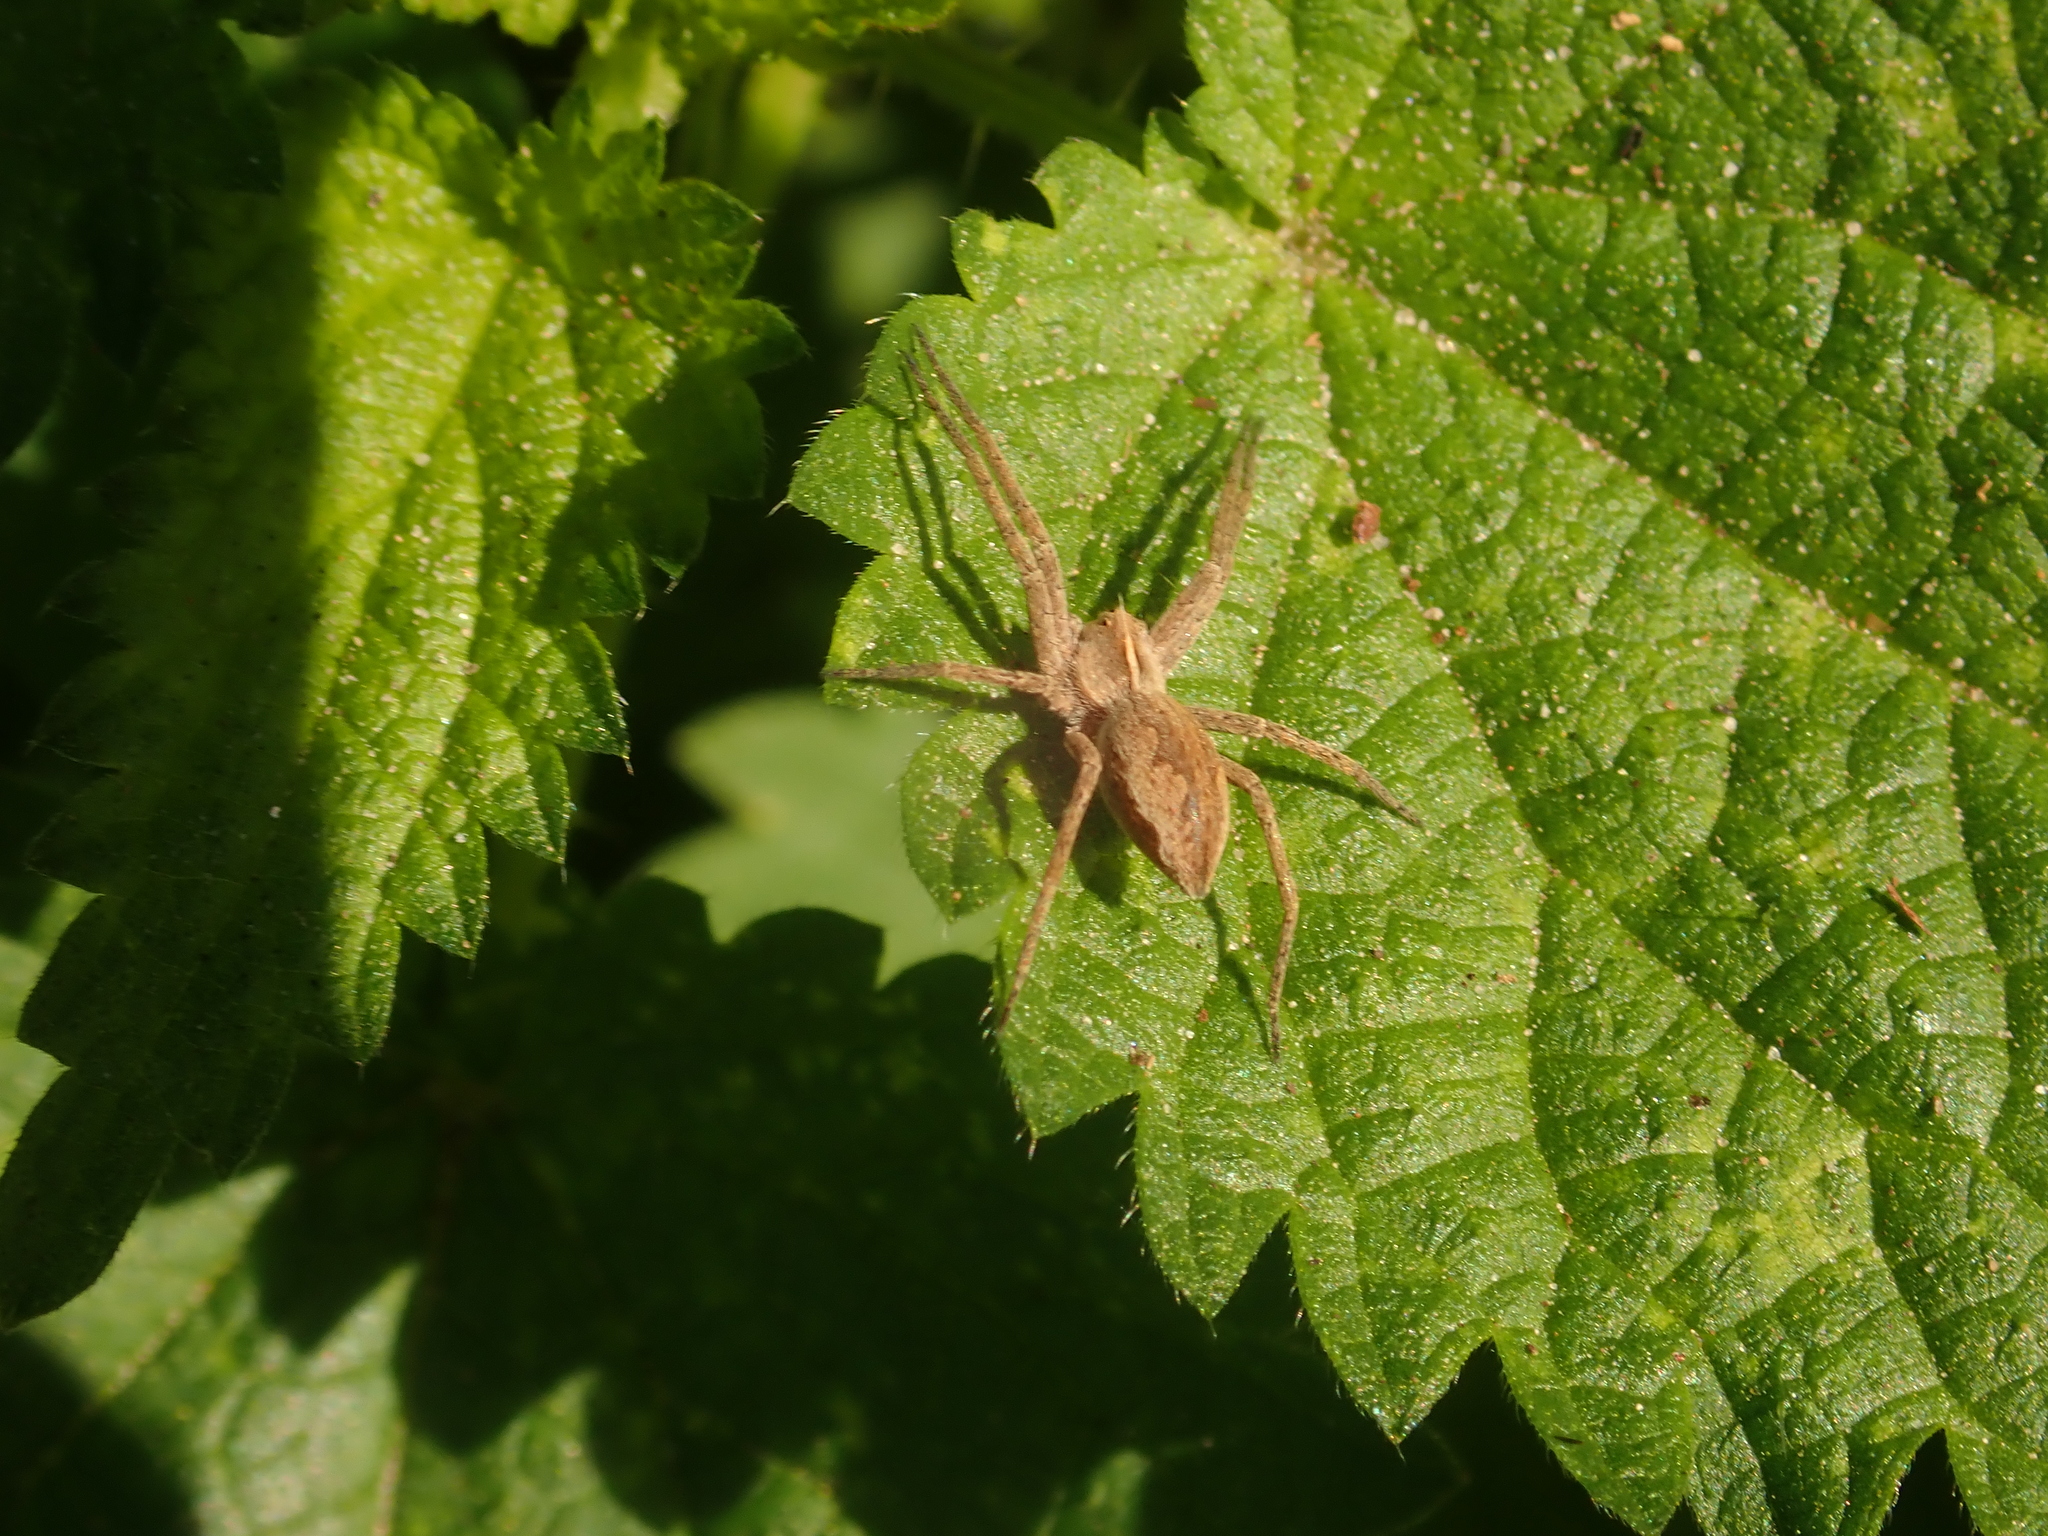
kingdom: Animalia
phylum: Arthropoda
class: Arachnida
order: Araneae
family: Pisauridae
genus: Pisaura
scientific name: Pisaura mirabilis
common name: Tent spider
